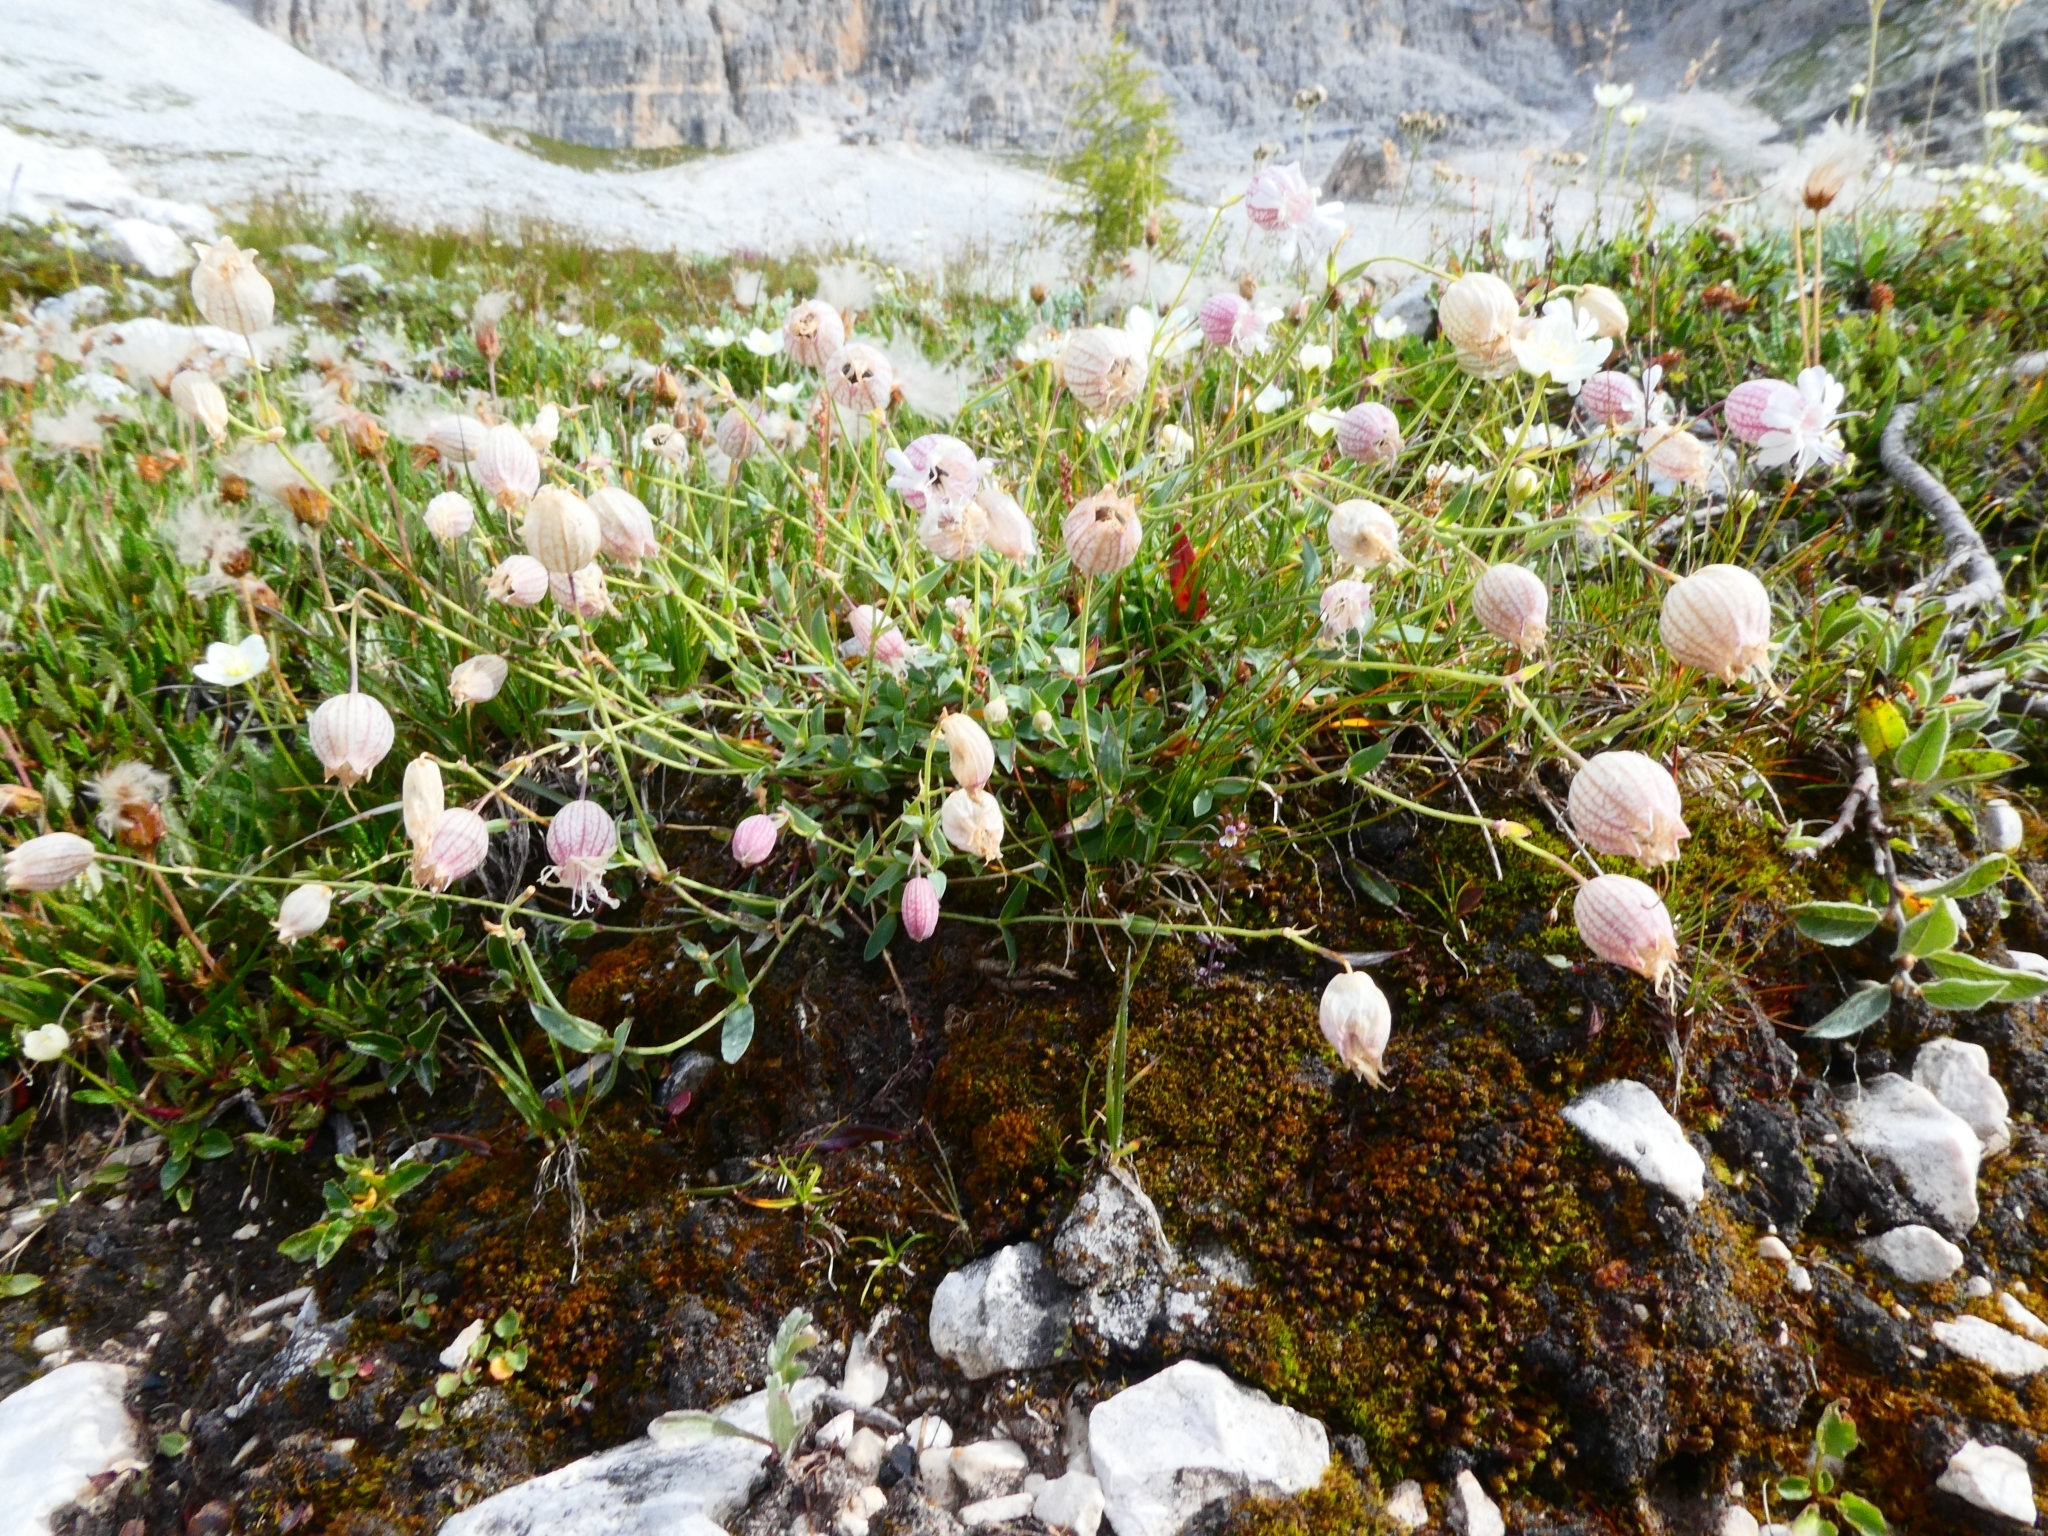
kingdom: Plantae
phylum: Tracheophyta
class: Magnoliopsida
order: Caryophyllales
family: Caryophyllaceae
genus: Silene
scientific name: Silene vulgaris
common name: Bladder campion
